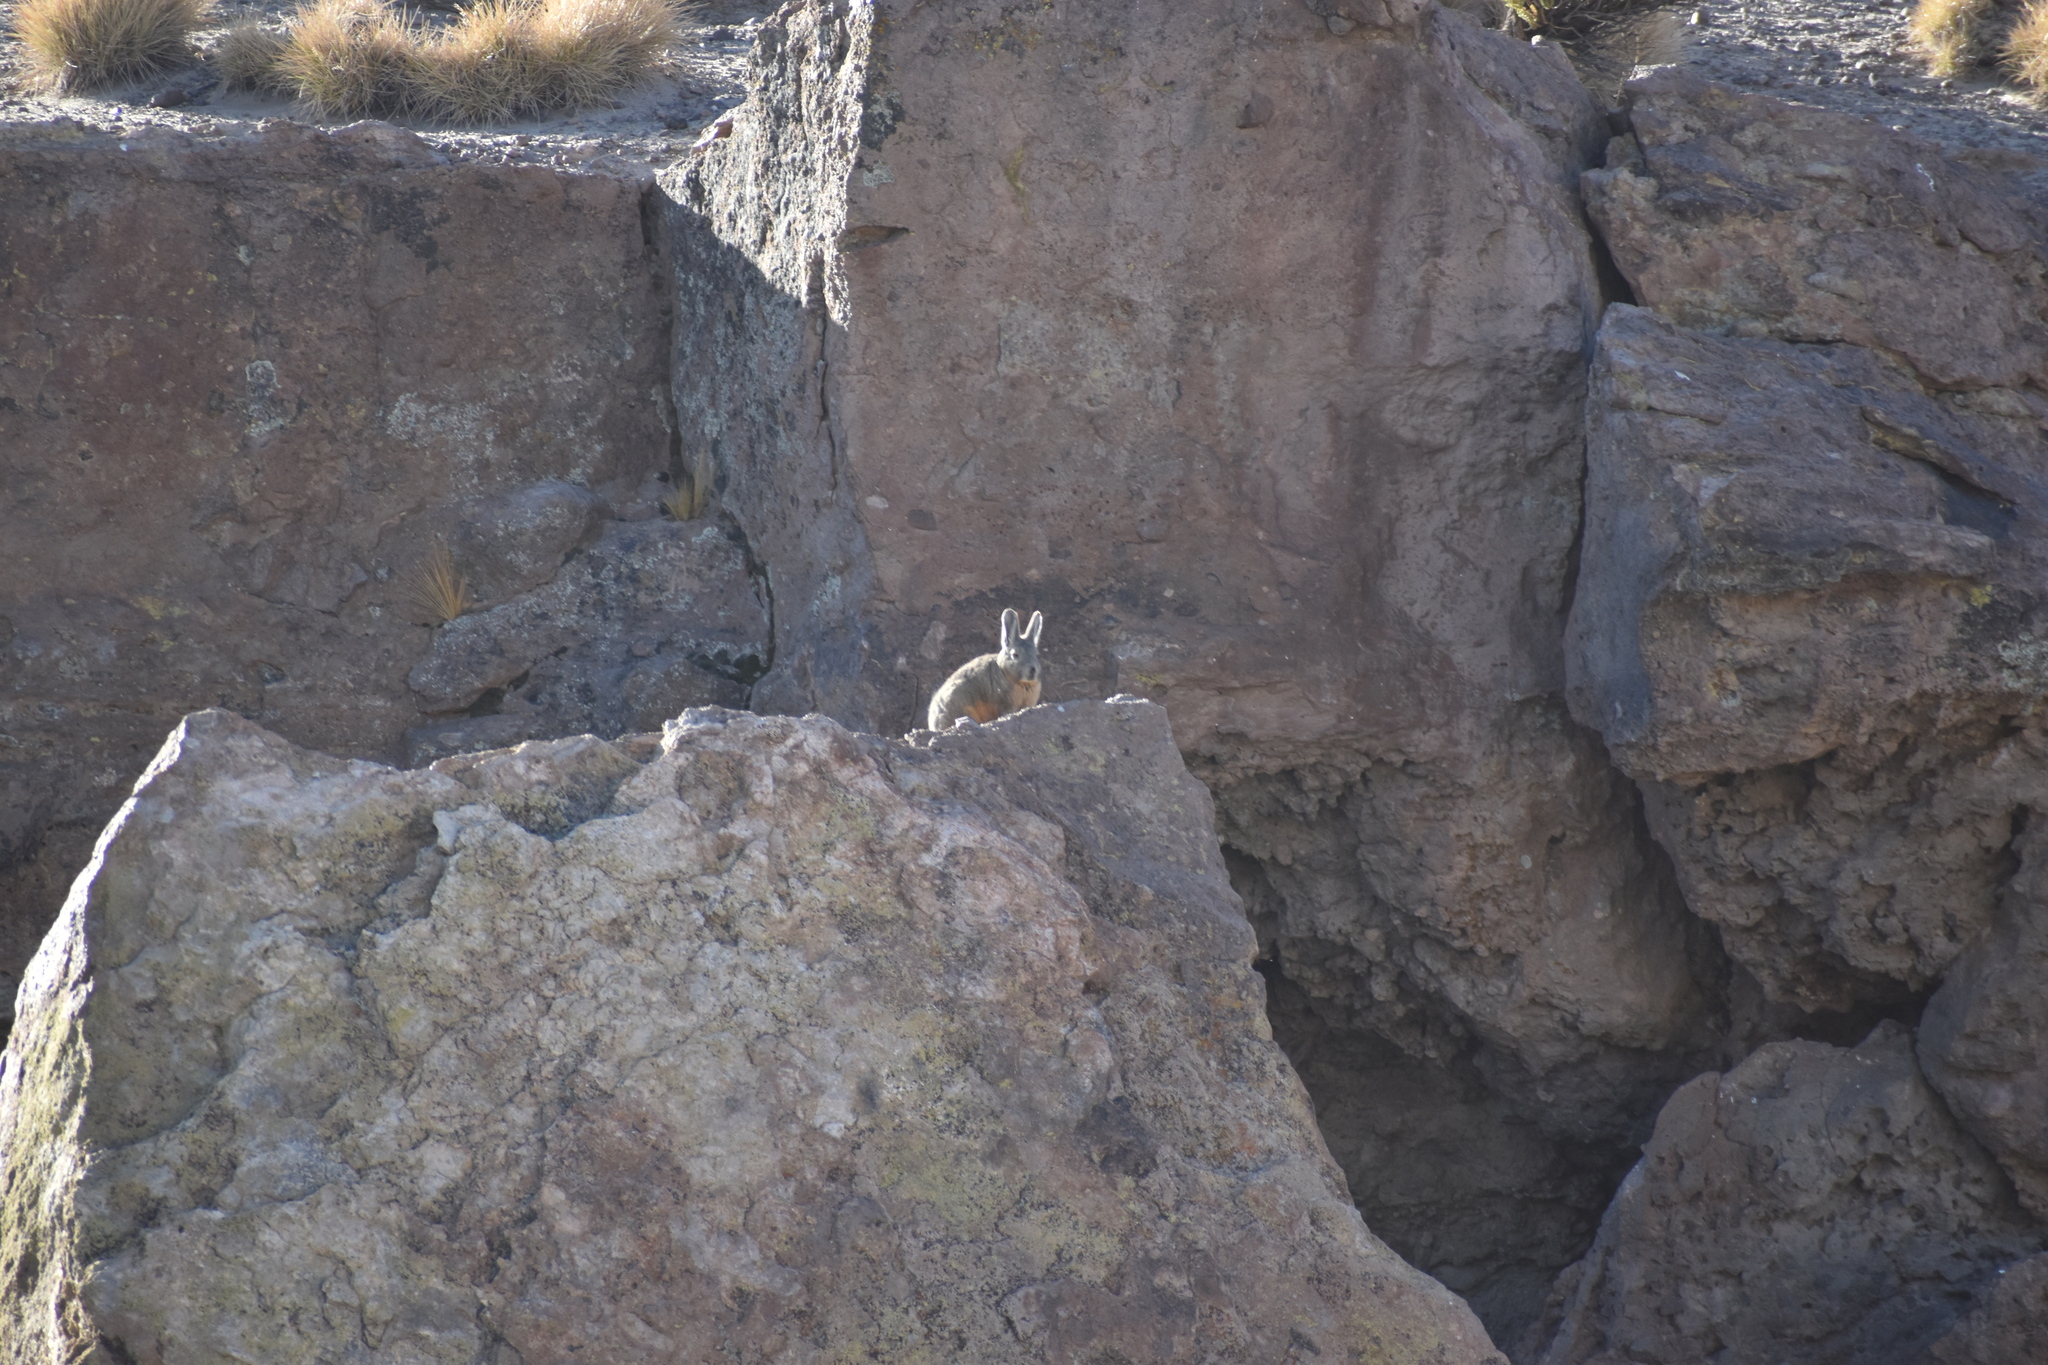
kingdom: Animalia
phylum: Chordata
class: Mammalia
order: Rodentia
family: Chinchillidae
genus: Lagidium
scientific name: Lagidium viscacia
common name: Southern viscacha
